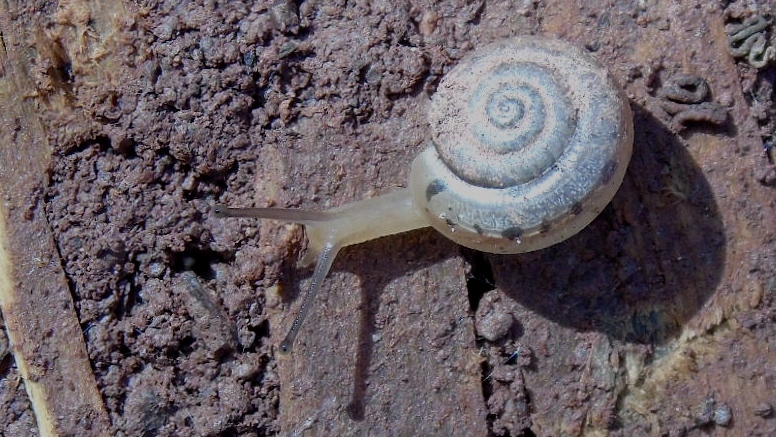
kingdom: Animalia
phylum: Mollusca
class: Gastropoda
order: Stylommatophora
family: Polygyridae
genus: Linisa
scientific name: Linisa
